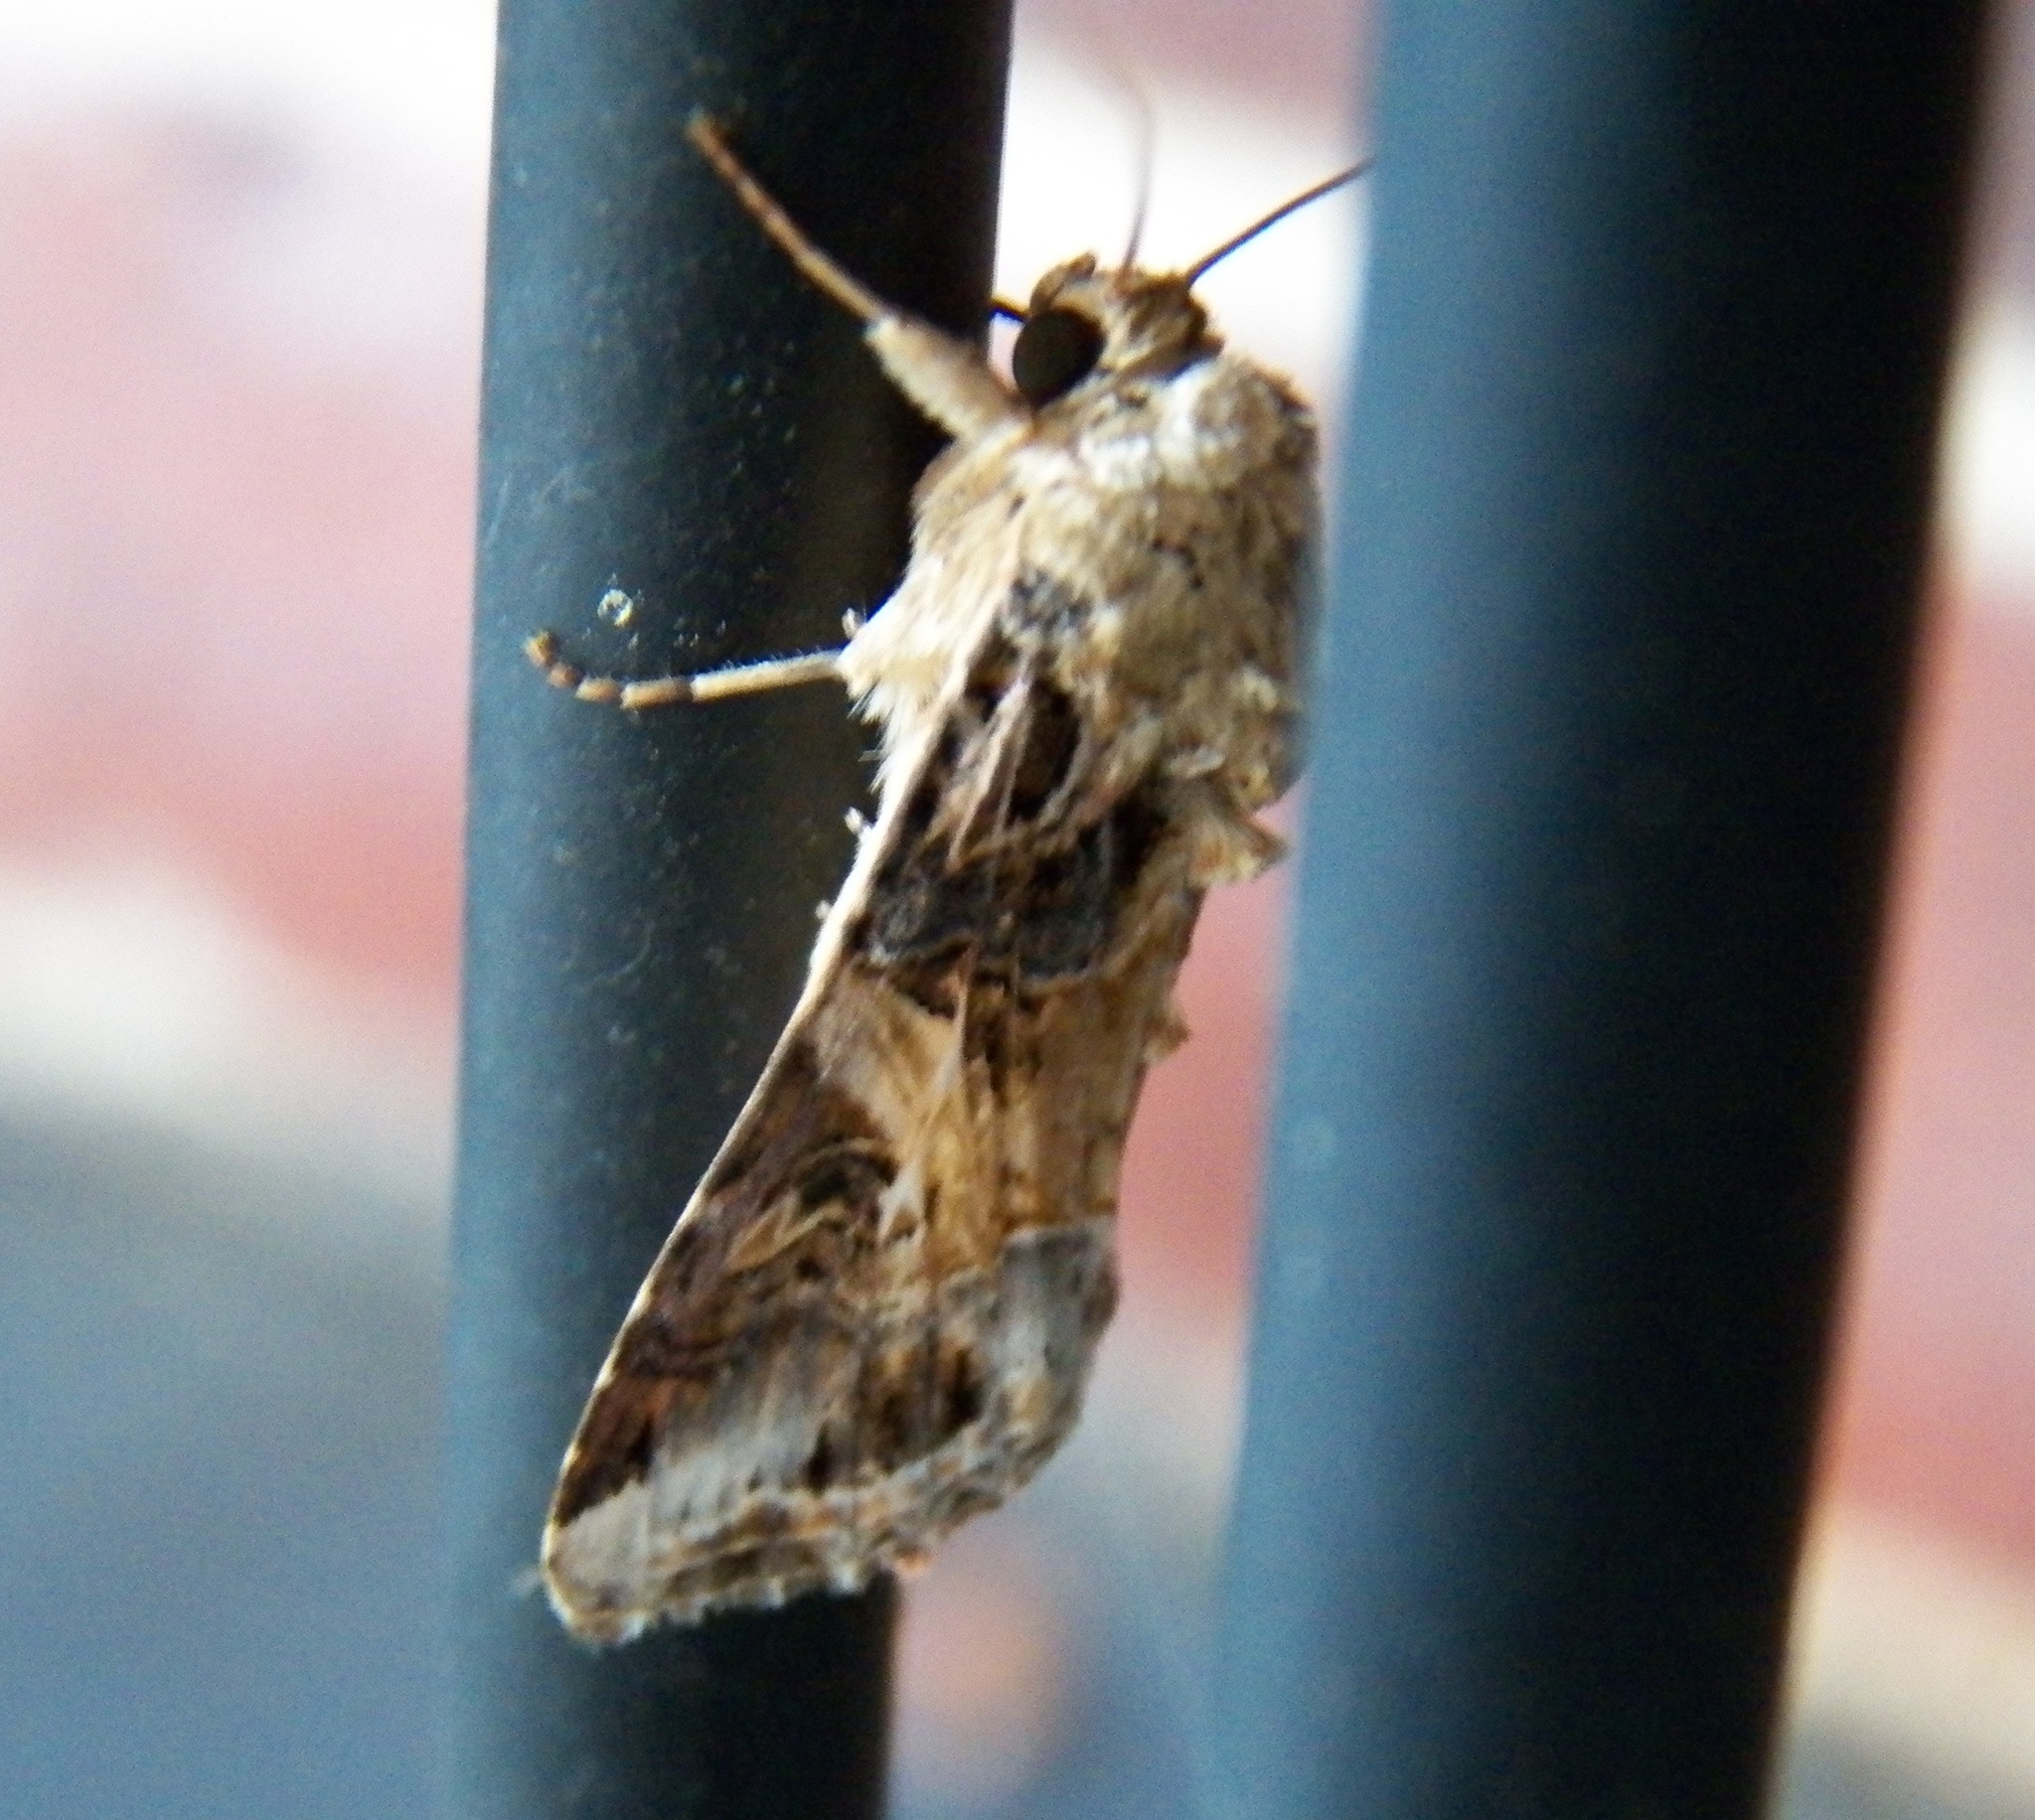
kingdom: Animalia
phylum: Arthropoda
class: Insecta
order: Lepidoptera
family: Noctuidae
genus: Spodoptera
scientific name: Spodoptera ornithogalli
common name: Yellow-striped armyworm
